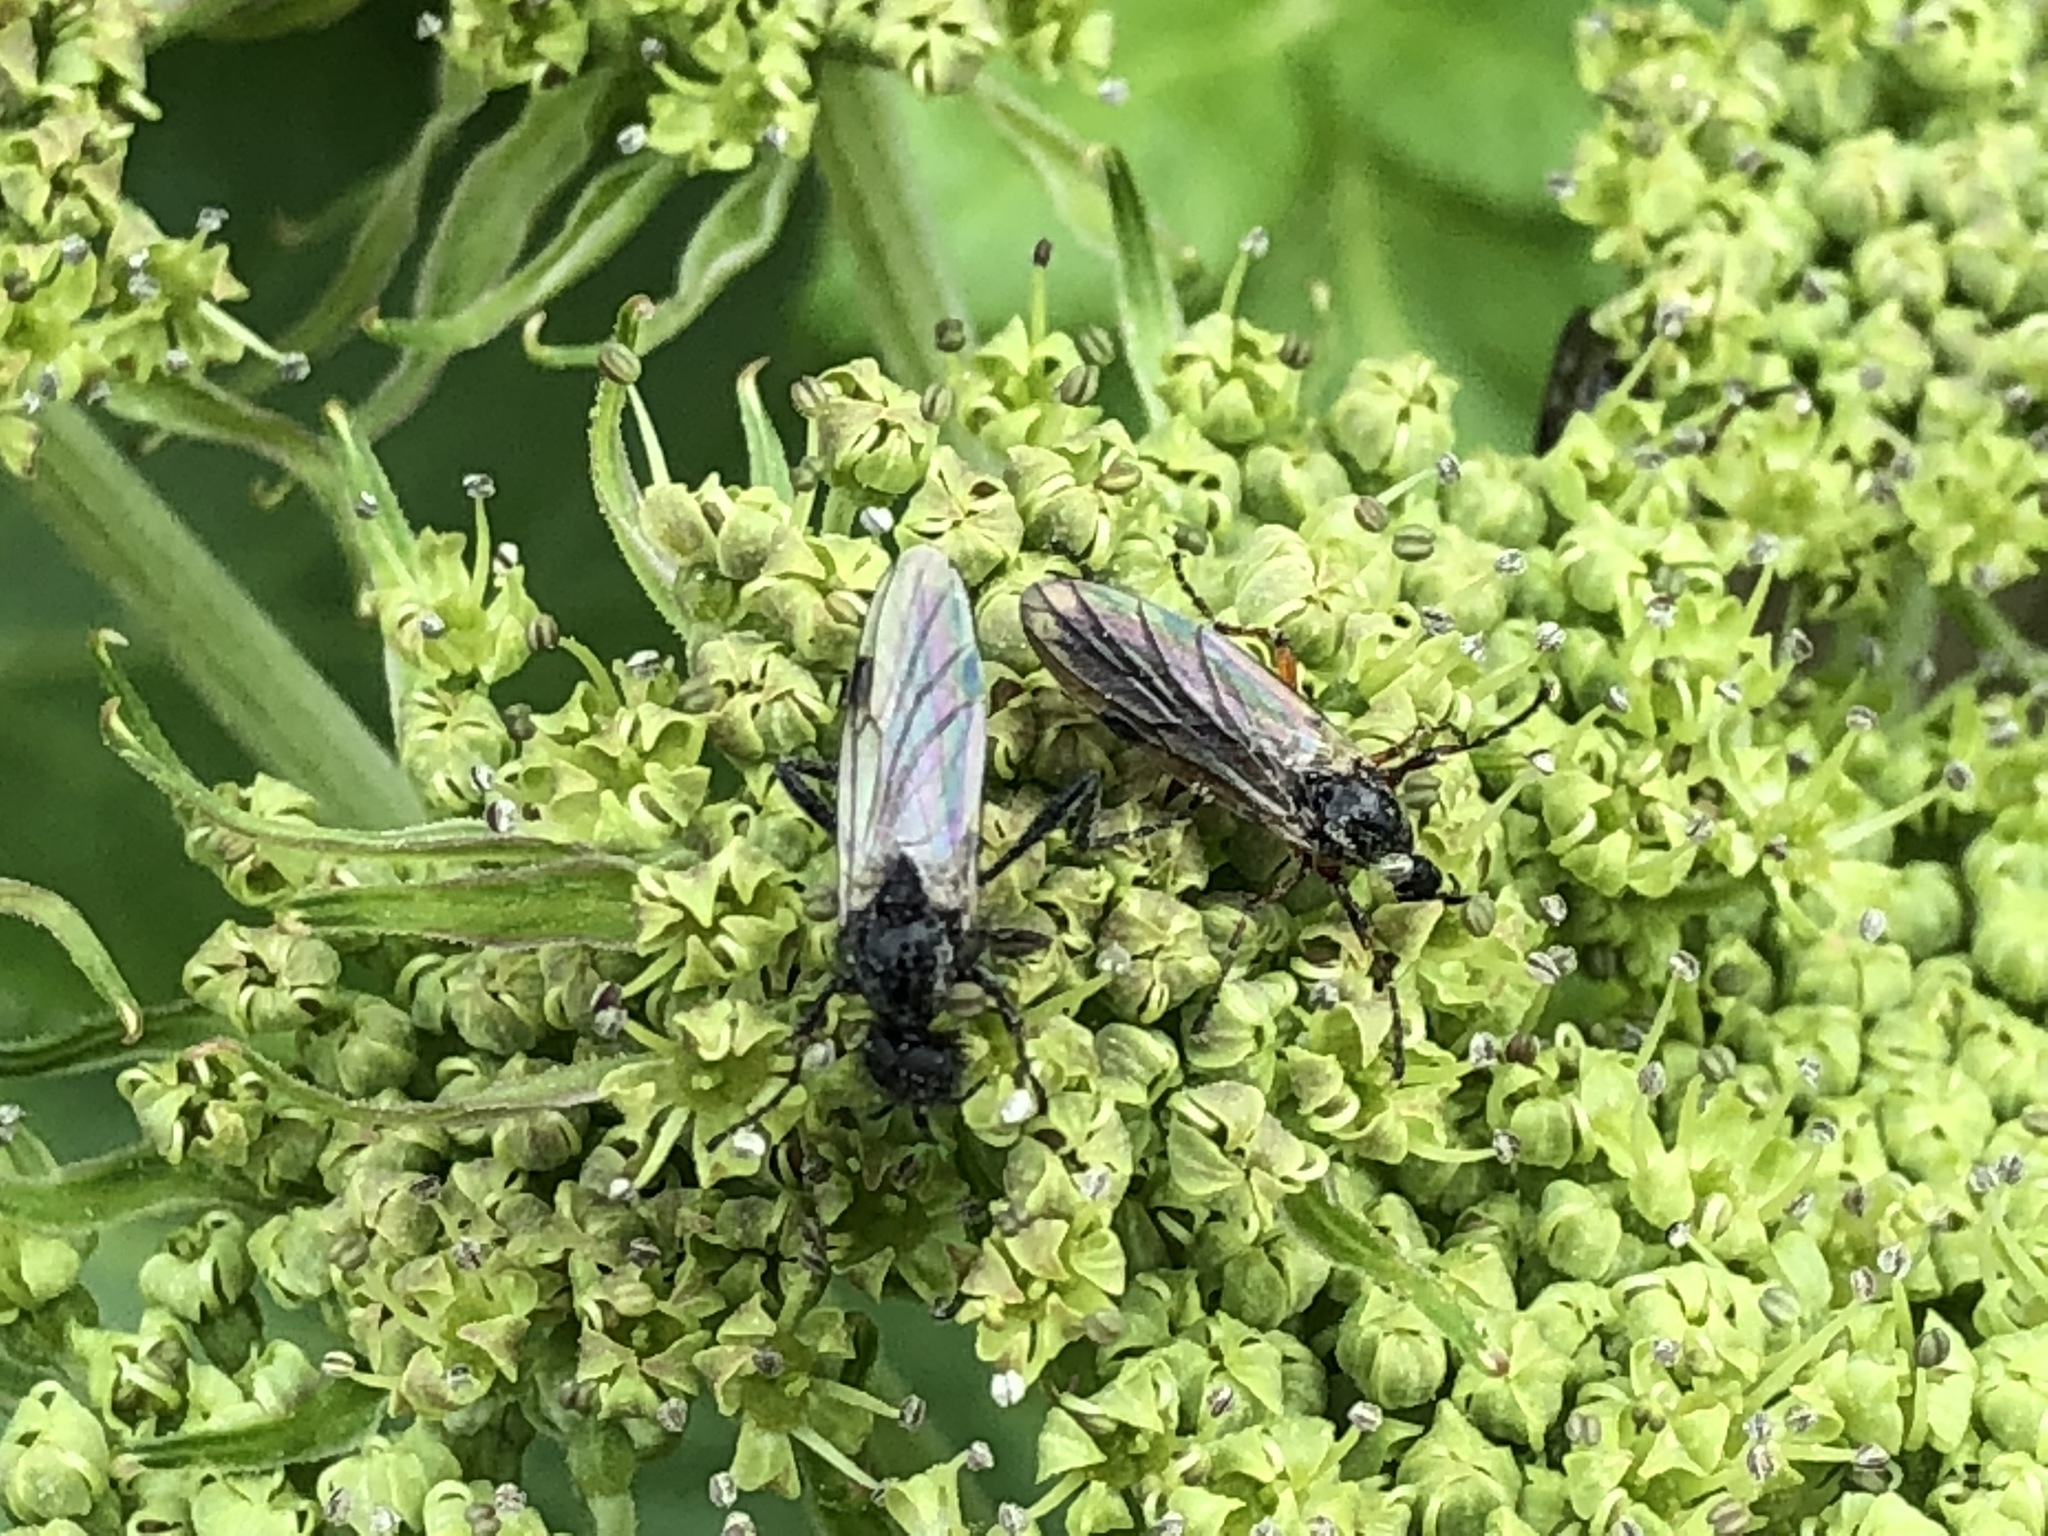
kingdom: Animalia
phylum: Arthropoda
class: Insecta
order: Diptera
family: Bibionidae
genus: Bibio
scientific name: Bibio
